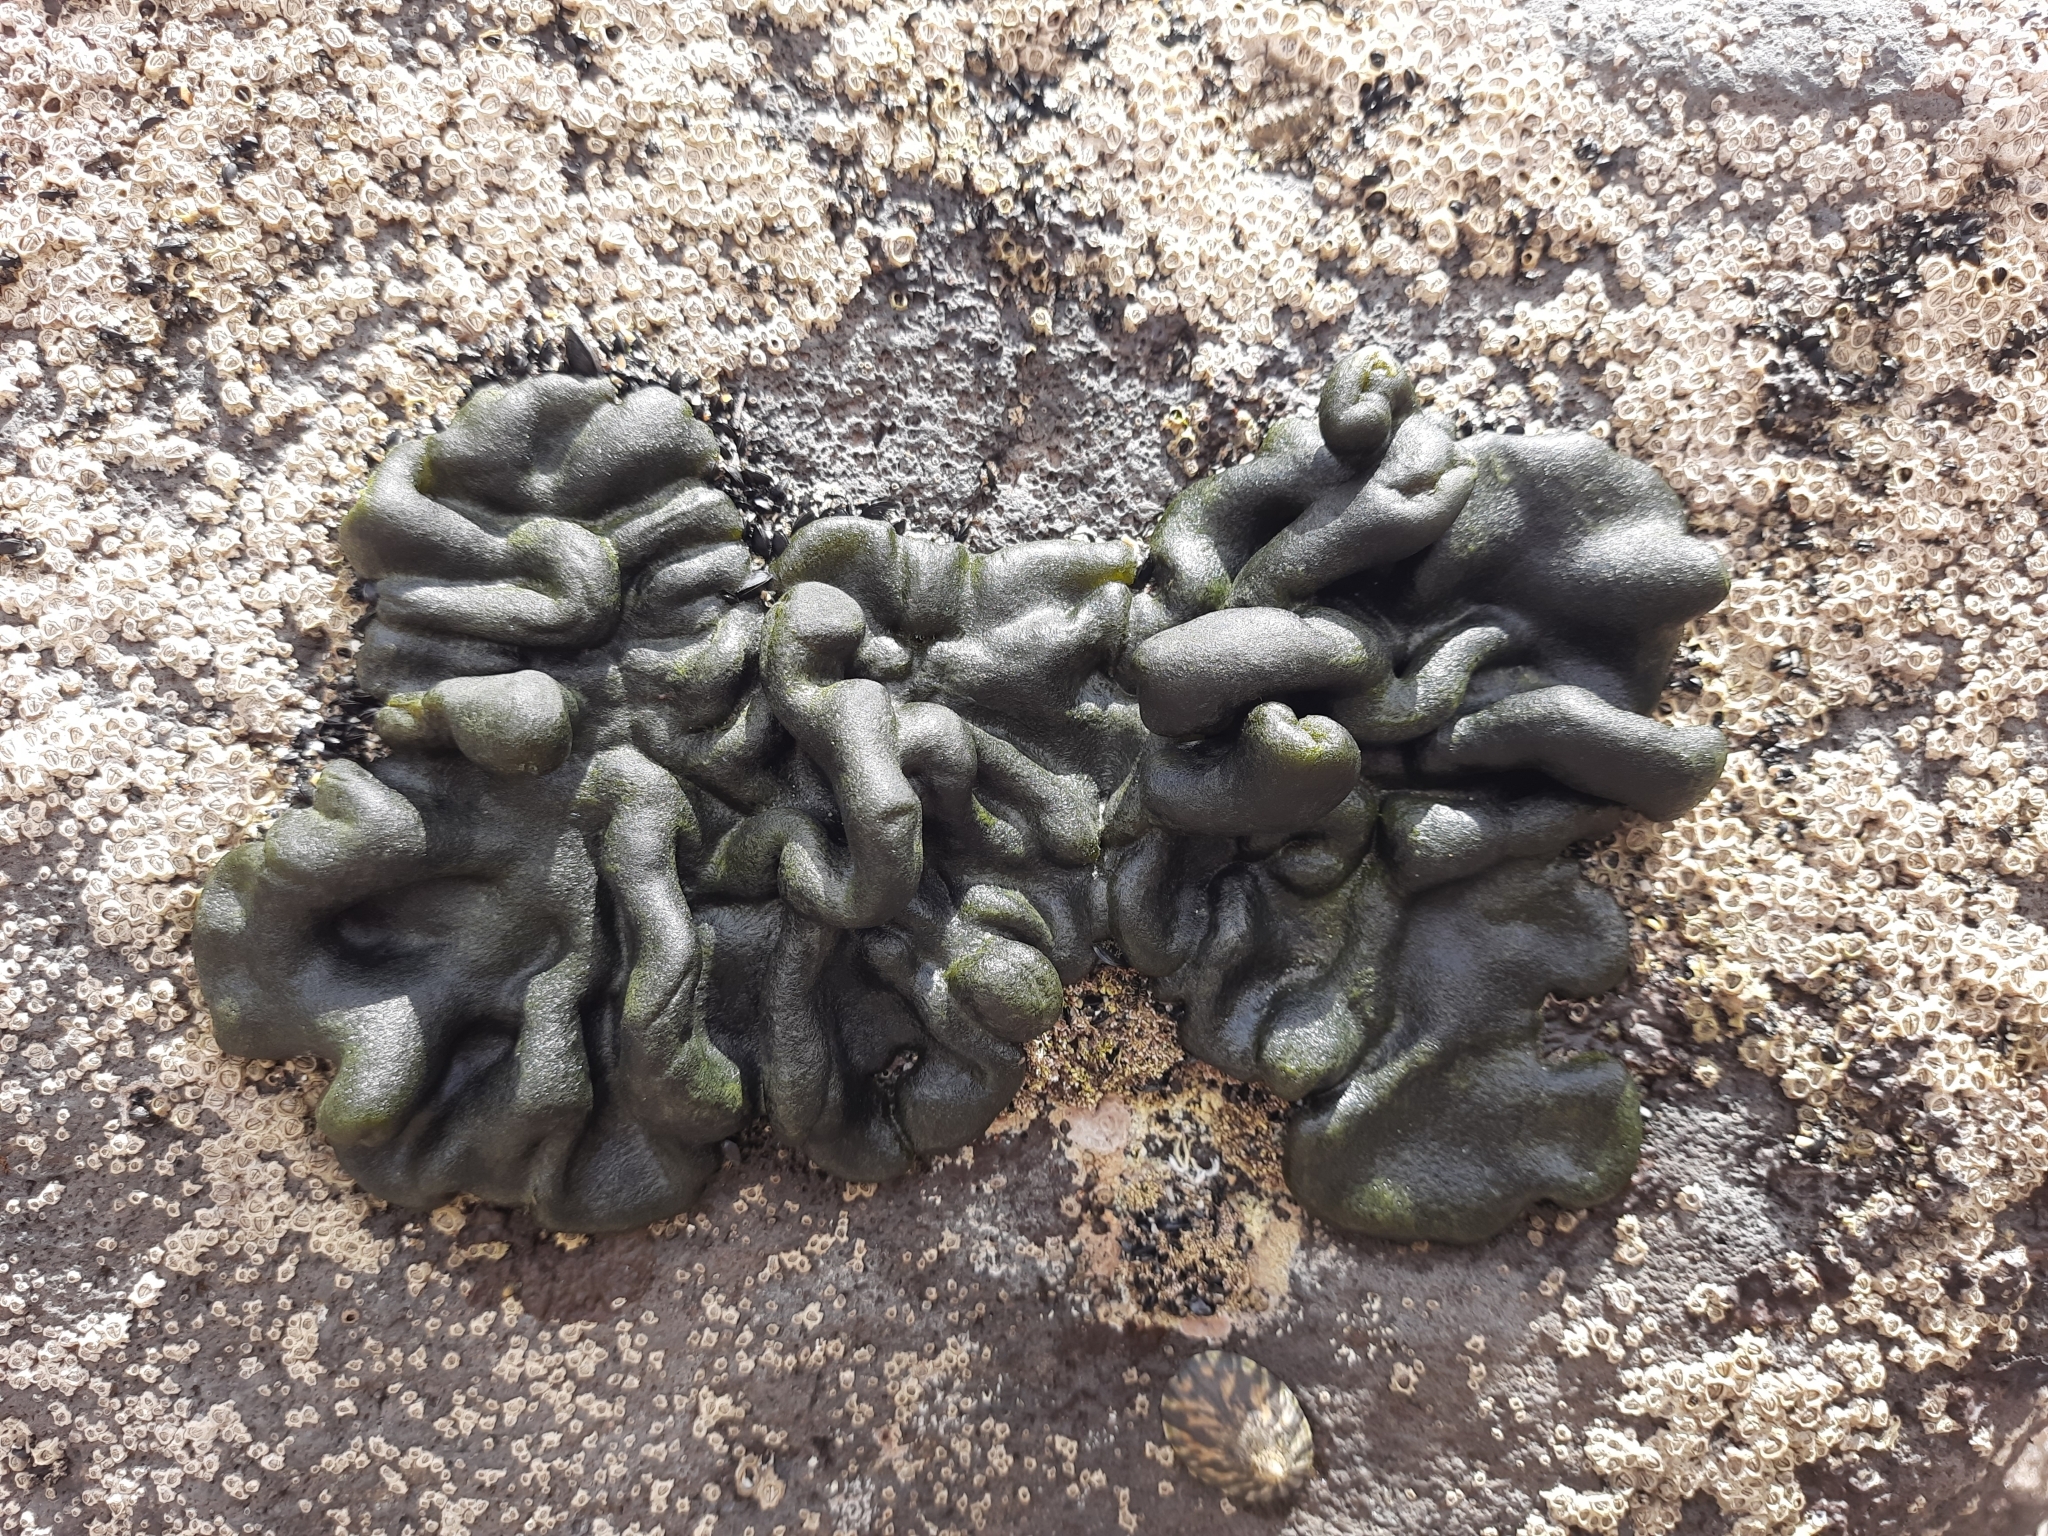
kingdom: Plantae
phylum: Chlorophyta
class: Ulvophyceae
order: Bryopsidales
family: Codiaceae
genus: Codium
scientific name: Codium convolutum
